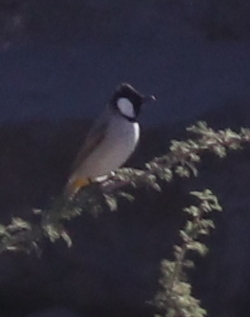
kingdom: Animalia
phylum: Chordata
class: Aves
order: Passeriformes
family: Pycnonotidae
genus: Pycnonotus
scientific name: Pycnonotus leucotis
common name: White-eared bulbul
